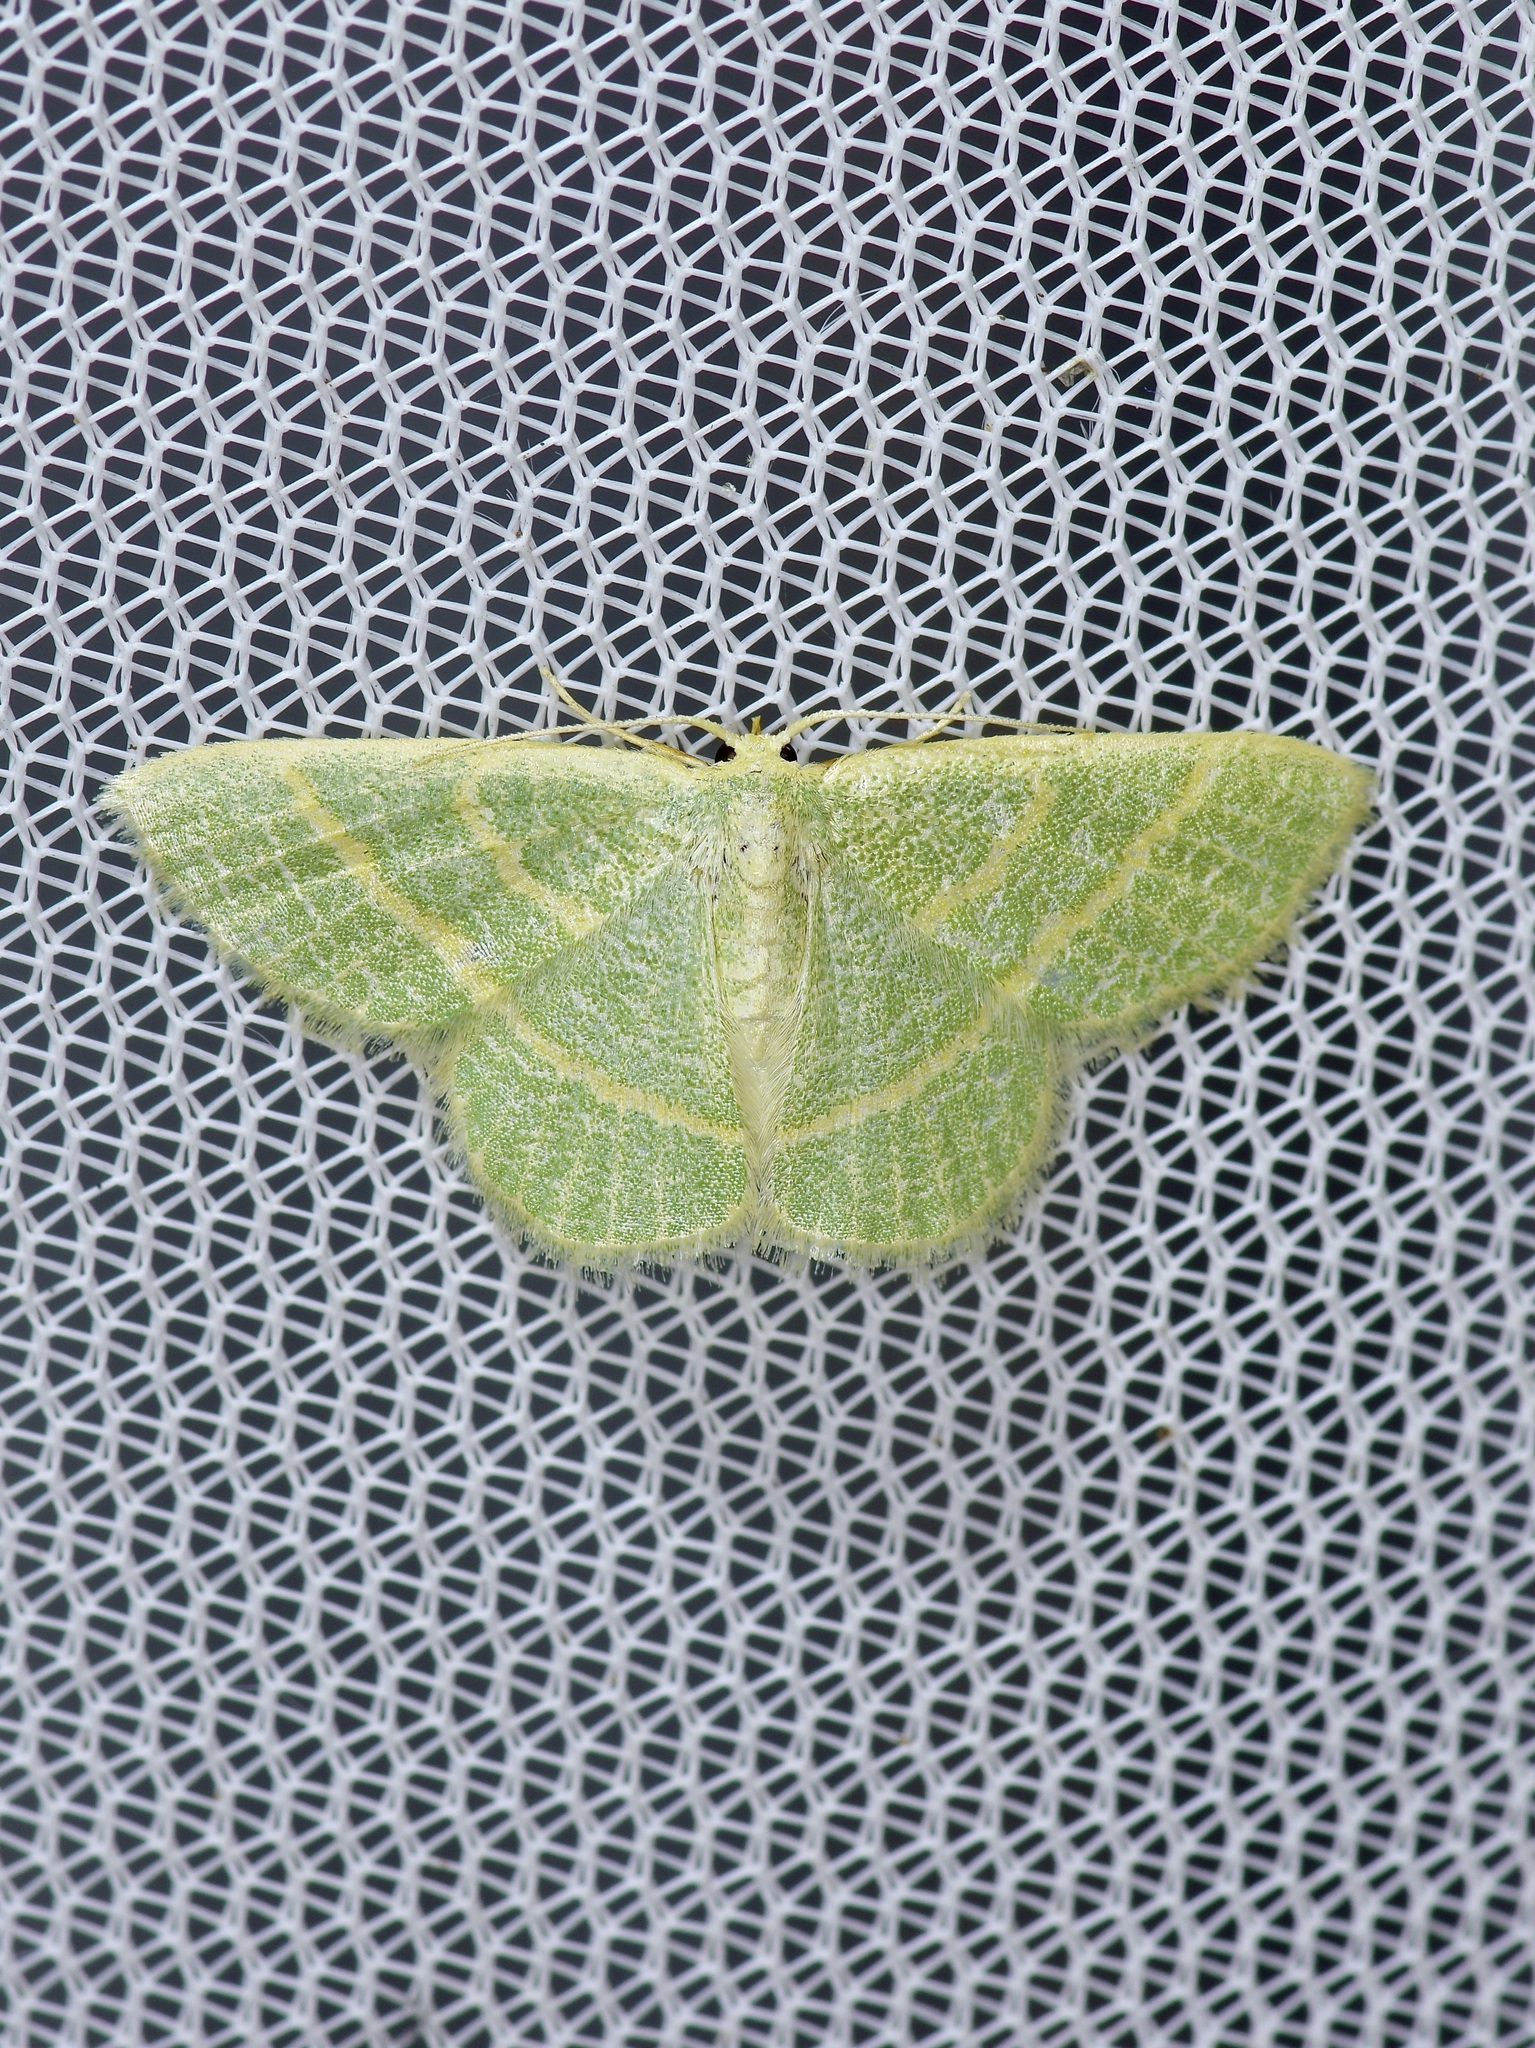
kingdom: Animalia
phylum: Arthropoda
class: Insecta
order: Lepidoptera
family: Geometridae
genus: Chlorochlamys
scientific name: Chlorochlamys chloroleucaria
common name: Blackberry looper
